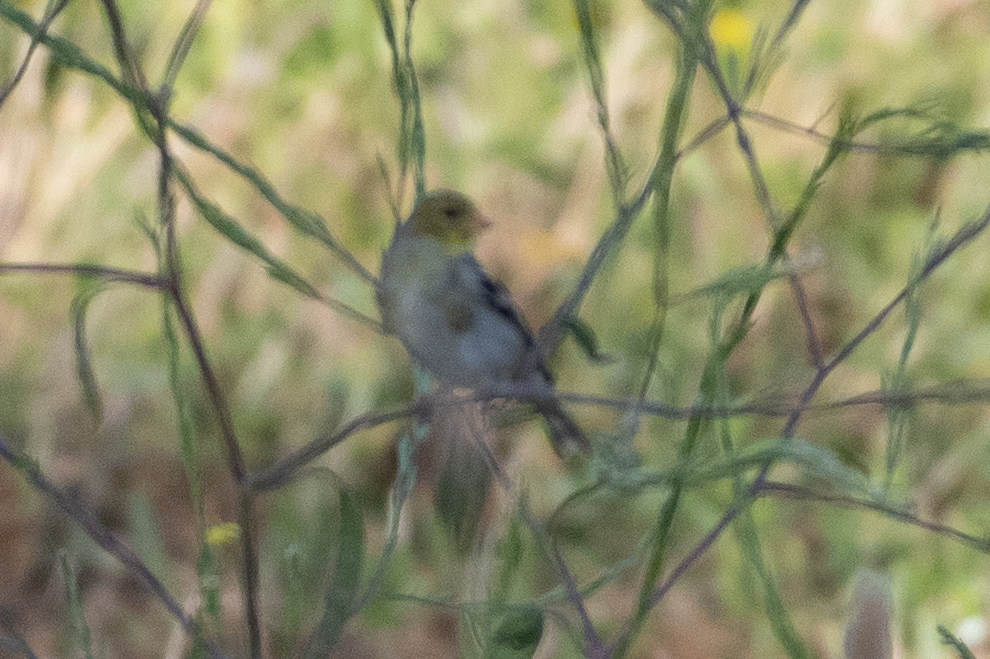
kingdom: Animalia
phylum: Chordata
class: Aves
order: Passeriformes
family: Fringillidae
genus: Spinus
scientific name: Spinus tristis
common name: American goldfinch
